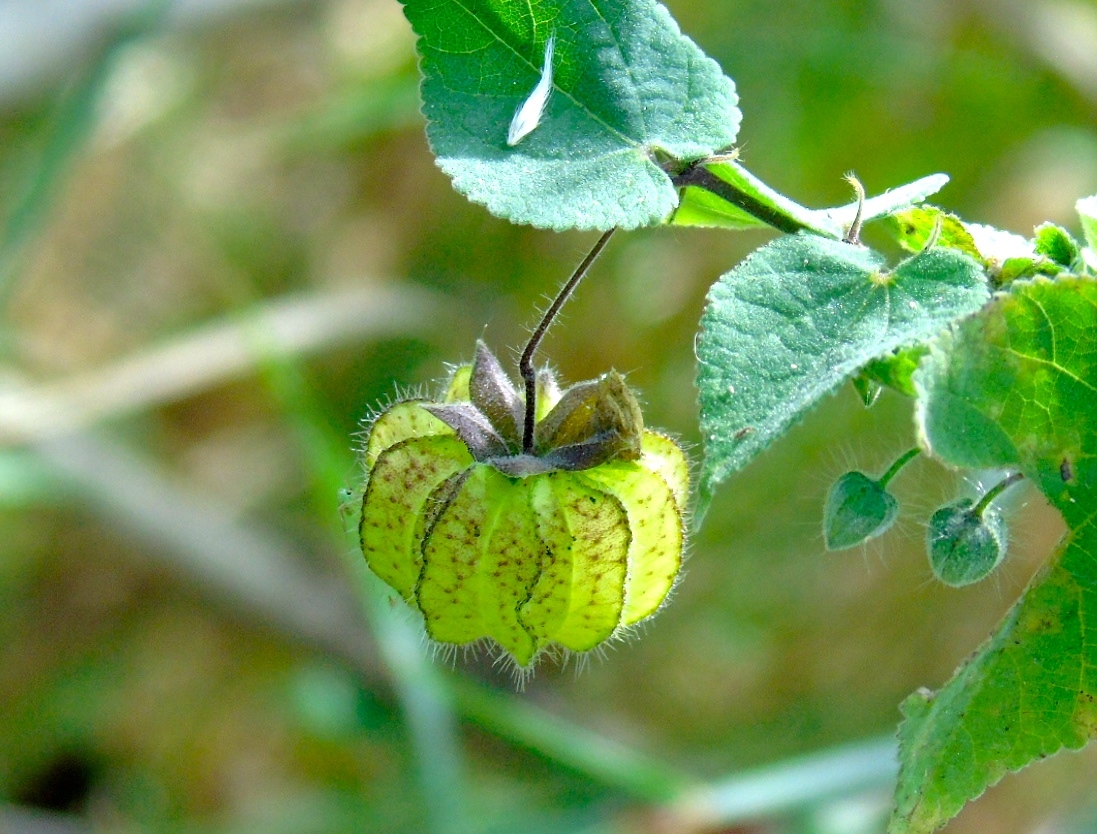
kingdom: Plantae
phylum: Tracheophyta
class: Magnoliopsida
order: Malvales
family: Malvaceae
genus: Herissantia
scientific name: Herissantia crispa
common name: Bladdermallow
